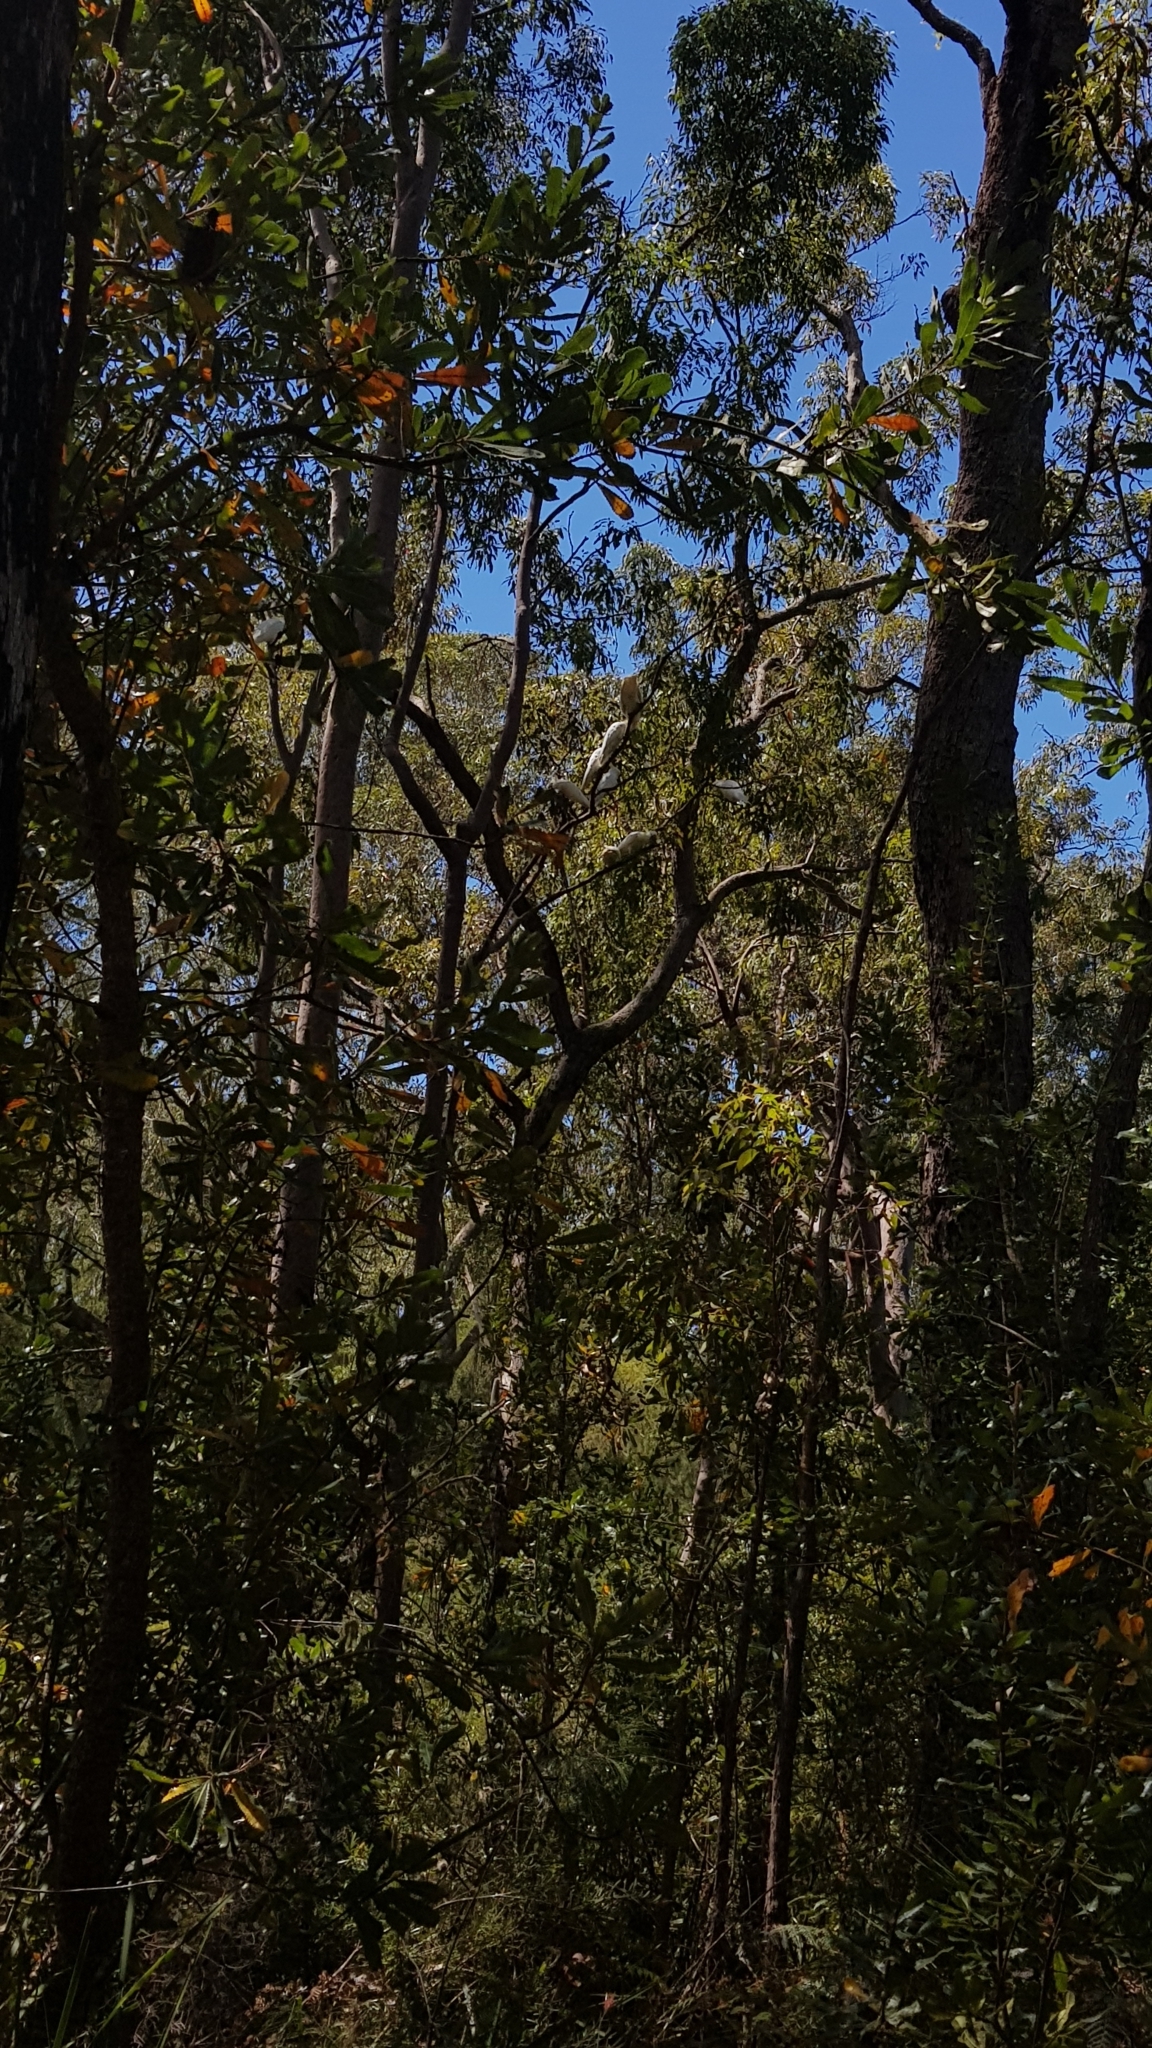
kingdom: Animalia
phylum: Chordata
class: Aves
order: Psittaciformes
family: Psittacidae
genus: Cacatua
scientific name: Cacatua galerita
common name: Sulphur-crested cockatoo
